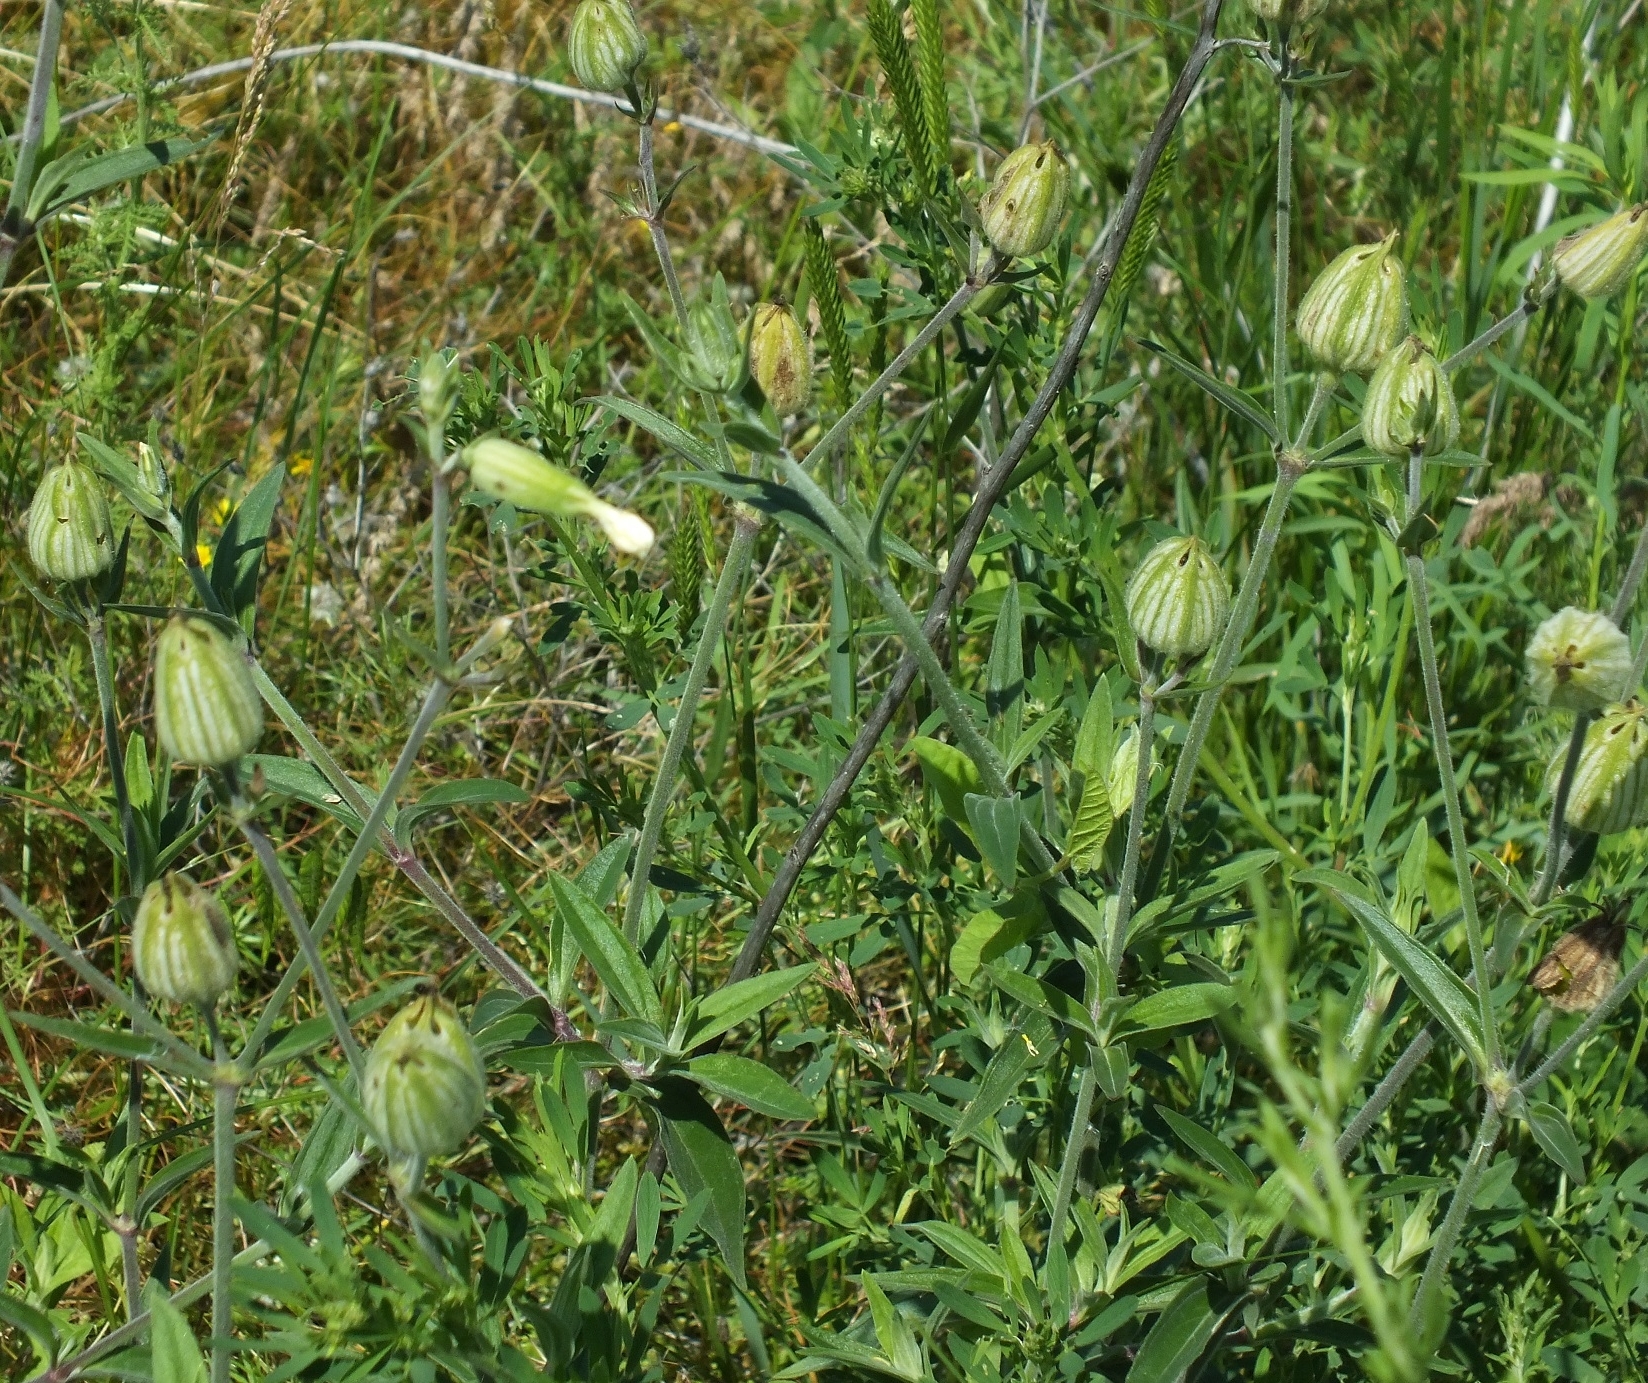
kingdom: Plantae
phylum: Tracheophyta
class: Magnoliopsida
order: Caryophyllales
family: Caryophyllaceae
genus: Silene
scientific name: Silene latifolia
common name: White campion
